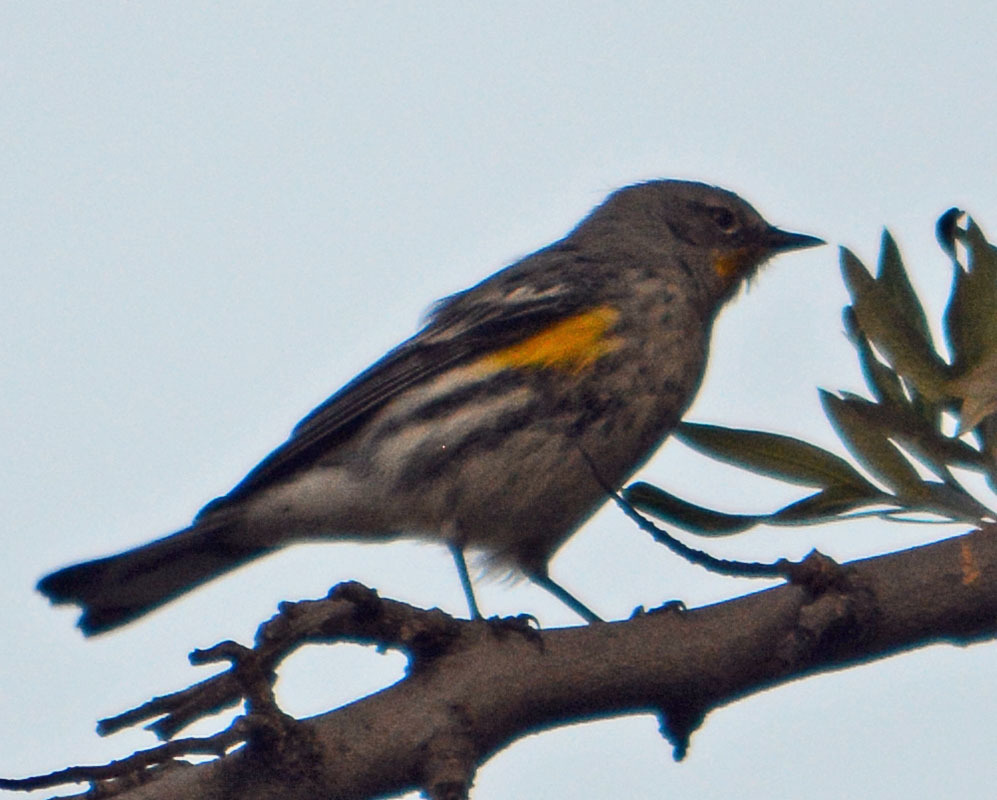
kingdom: Animalia
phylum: Chordata
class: Aves
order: Passeriformes
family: Parulidae
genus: Setophaga
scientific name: Setophaga auduboni
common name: Audubon's warbler
